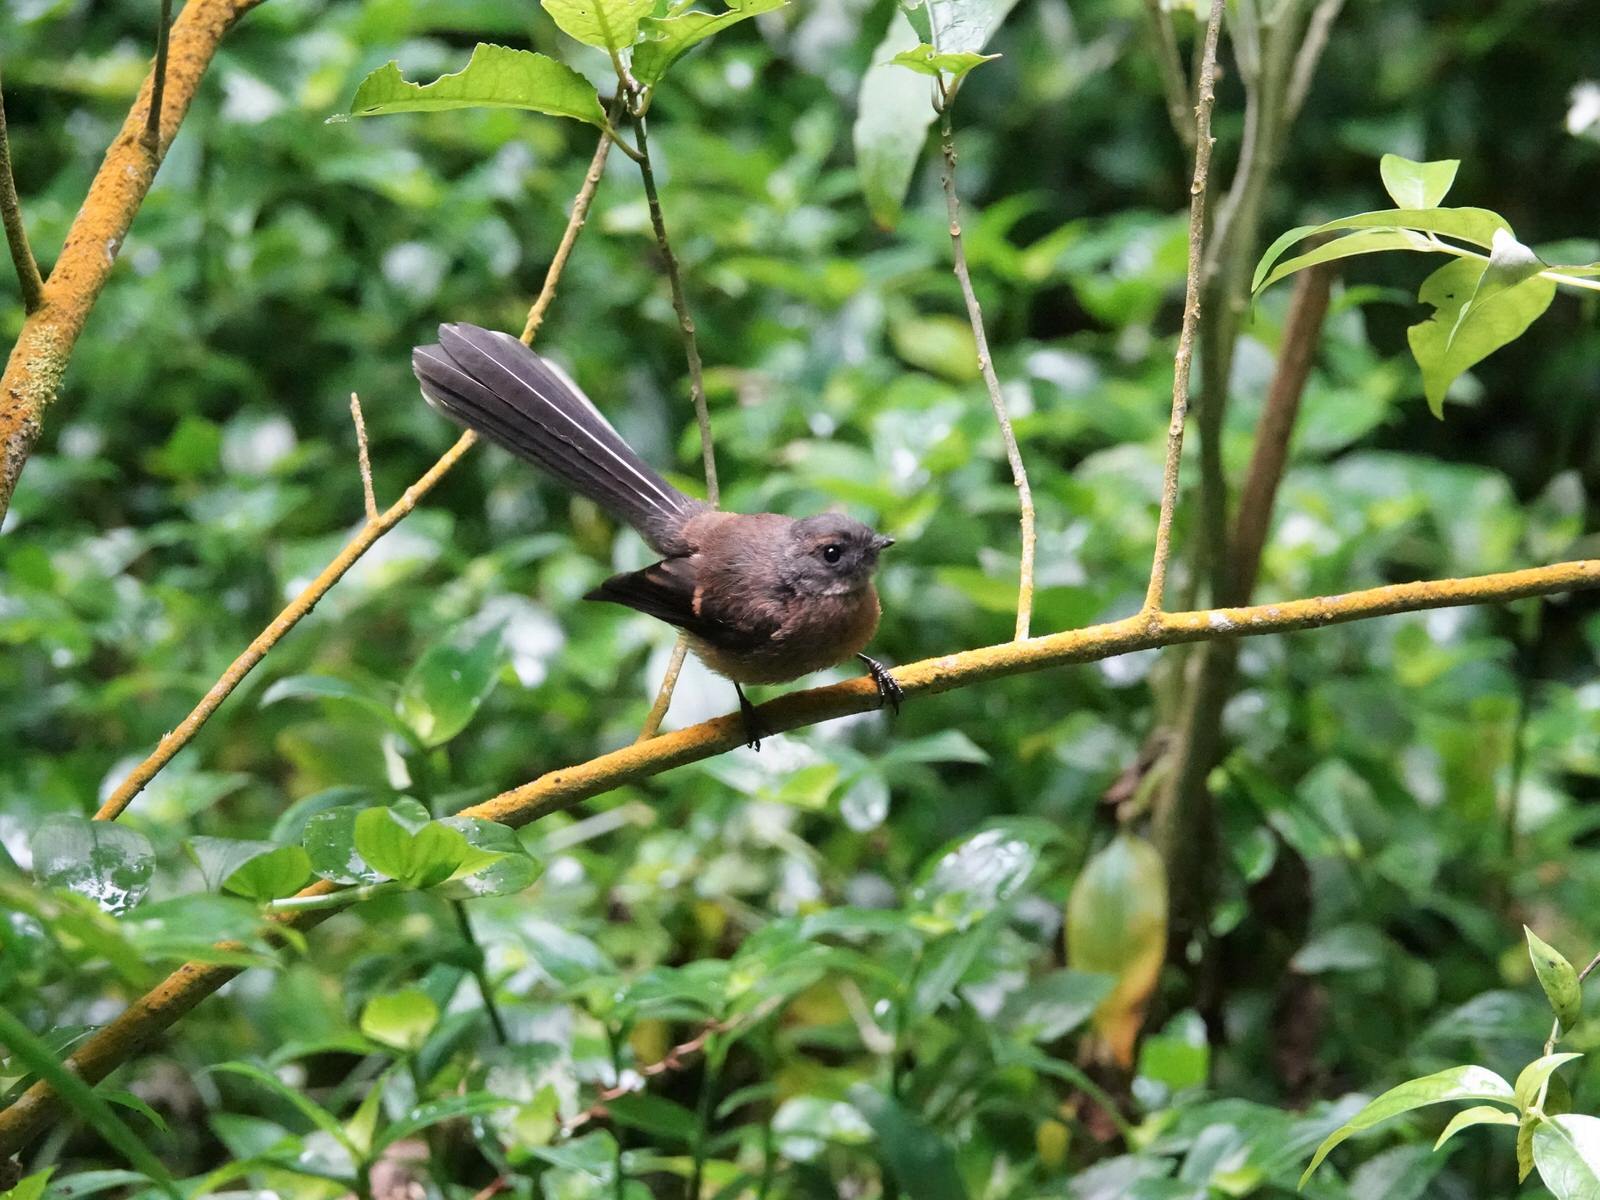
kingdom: Animalia
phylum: Chordata
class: Aves
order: Passeriformes
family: Rhipiduridae
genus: Rhipidura
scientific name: Rhipidura fuliginosa
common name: New zealand fantail
